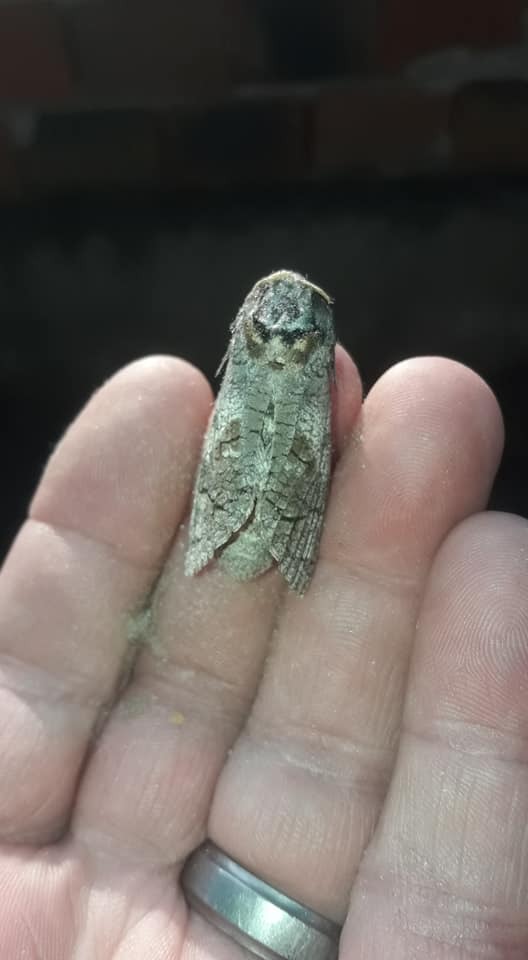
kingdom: Animalia
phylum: Arthropoda
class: Insecta
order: Lepidoptera
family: Cossidae
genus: Cossus
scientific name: Cossus cossus
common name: Goat moth
